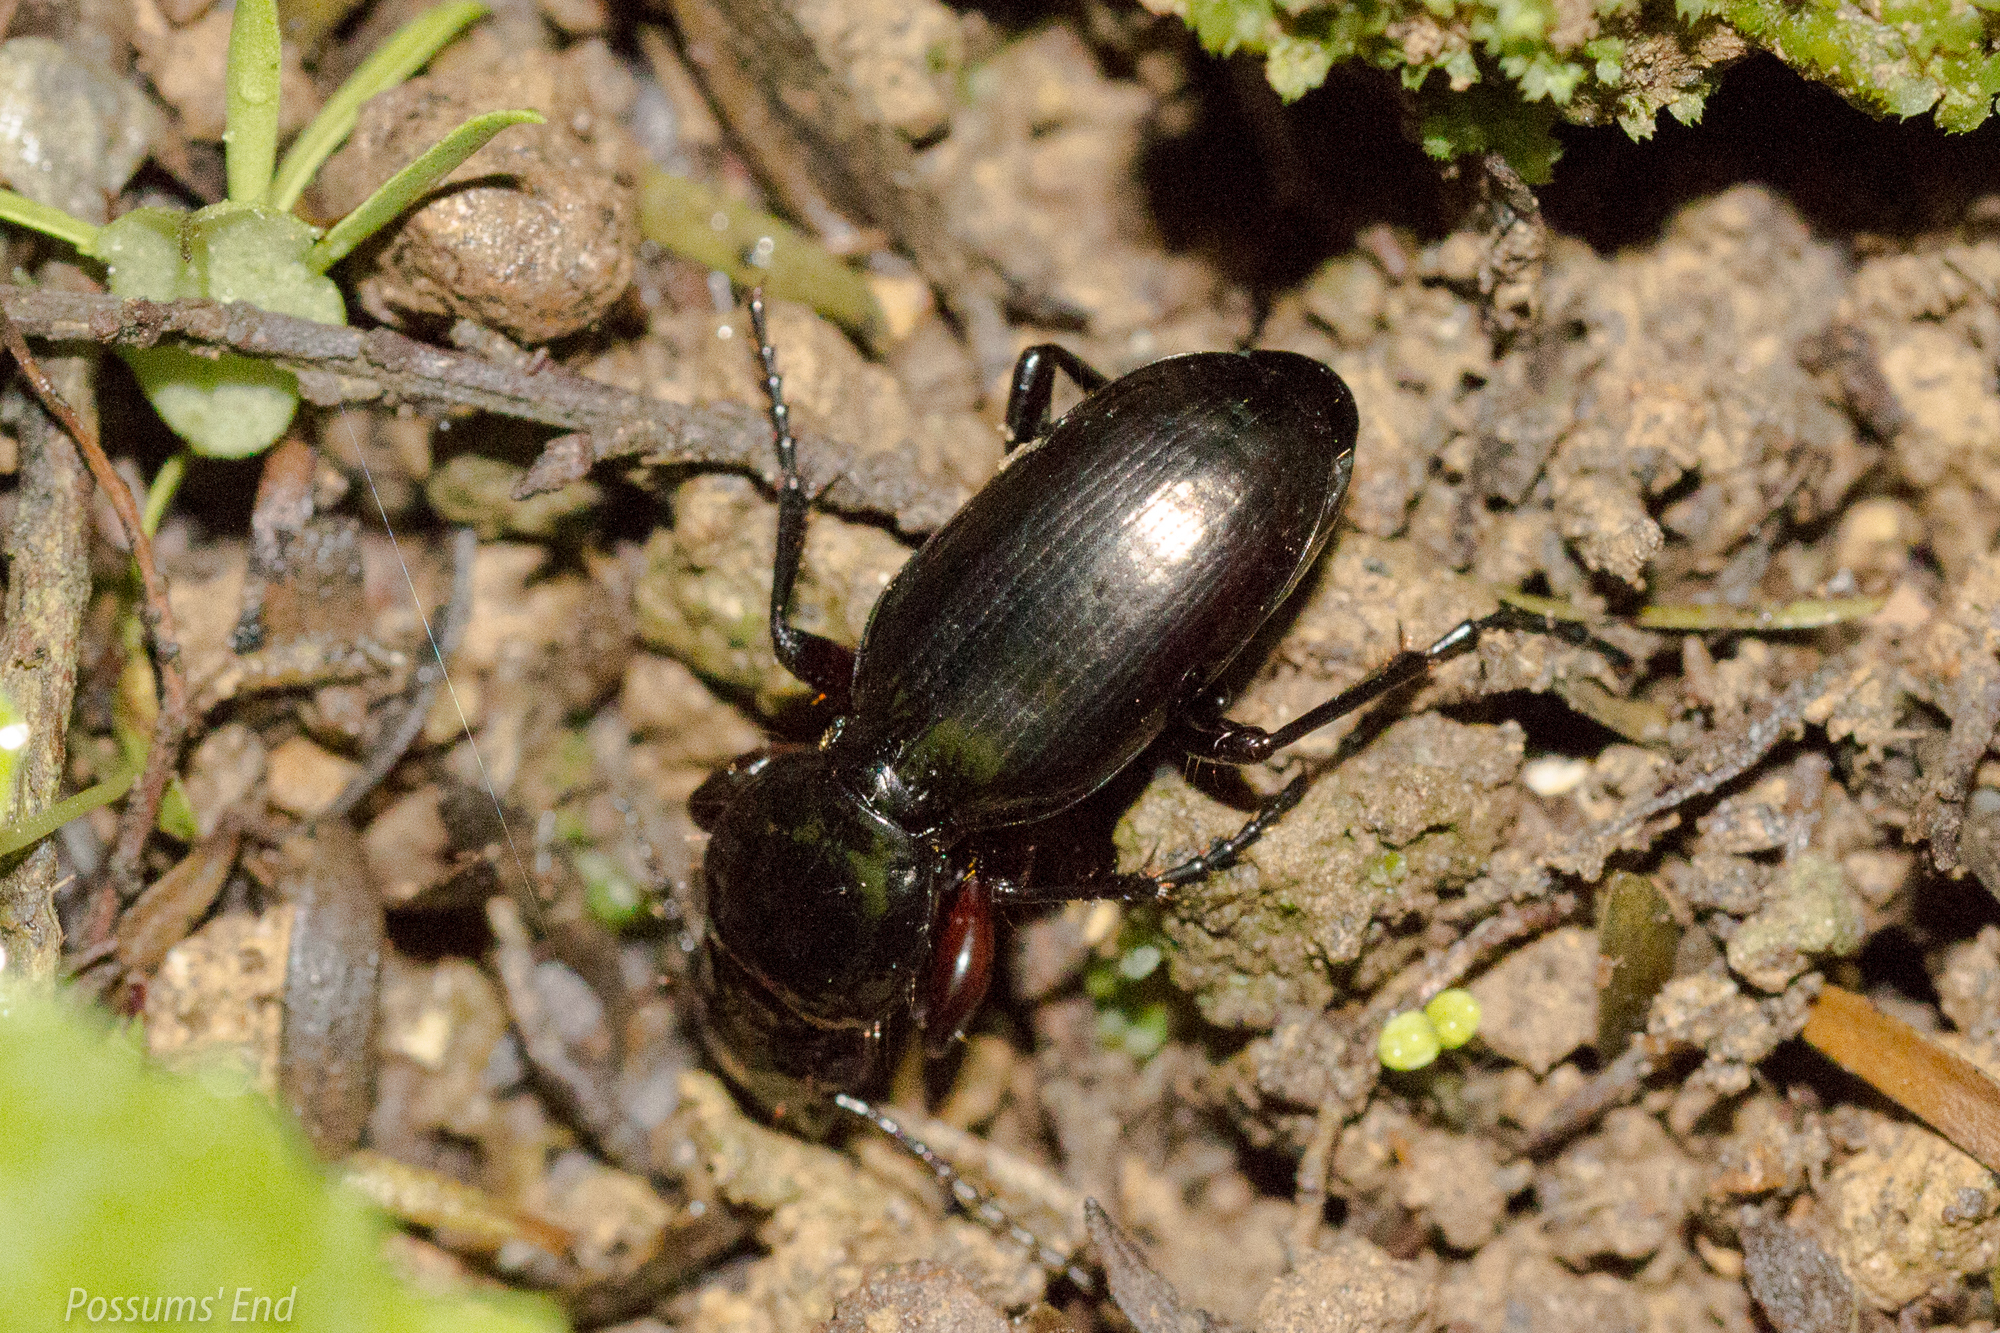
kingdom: Animalia
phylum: Arthropoda
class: Insecta
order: Coleoptera
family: Carabidae
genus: Oregus
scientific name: Oregus aereus
